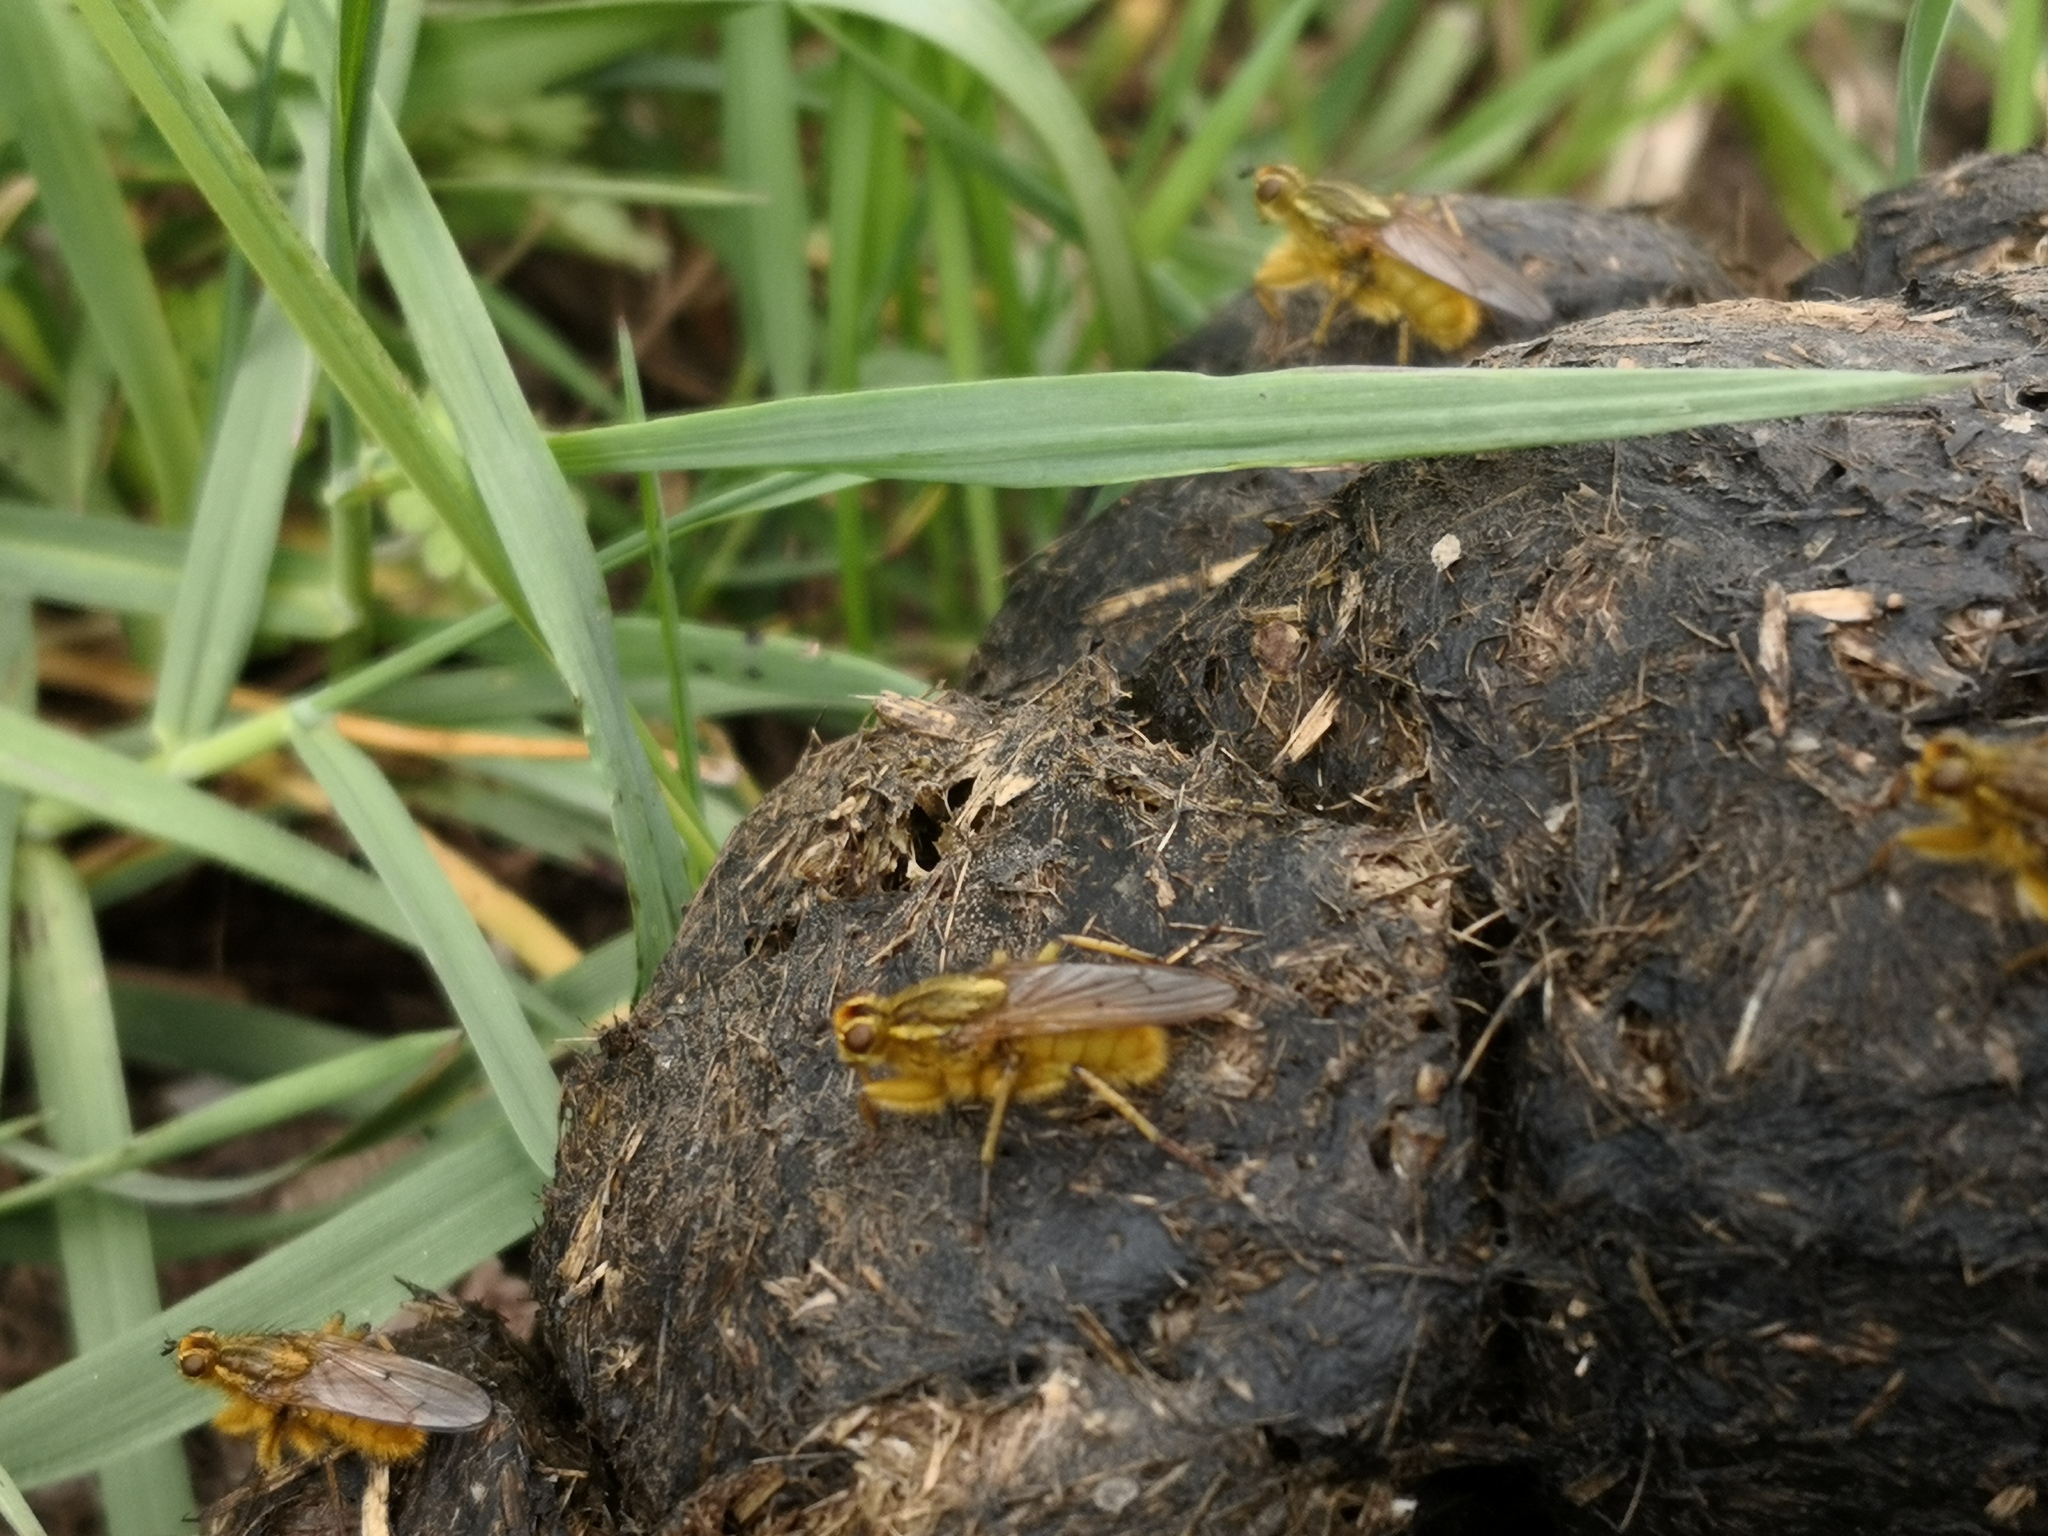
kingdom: Animalia
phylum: Arthropoda
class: Insecta
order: Diptera
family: Scathophagidae
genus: Scathophaga
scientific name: Scathophaga stercoraria
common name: Yellow dung fly
